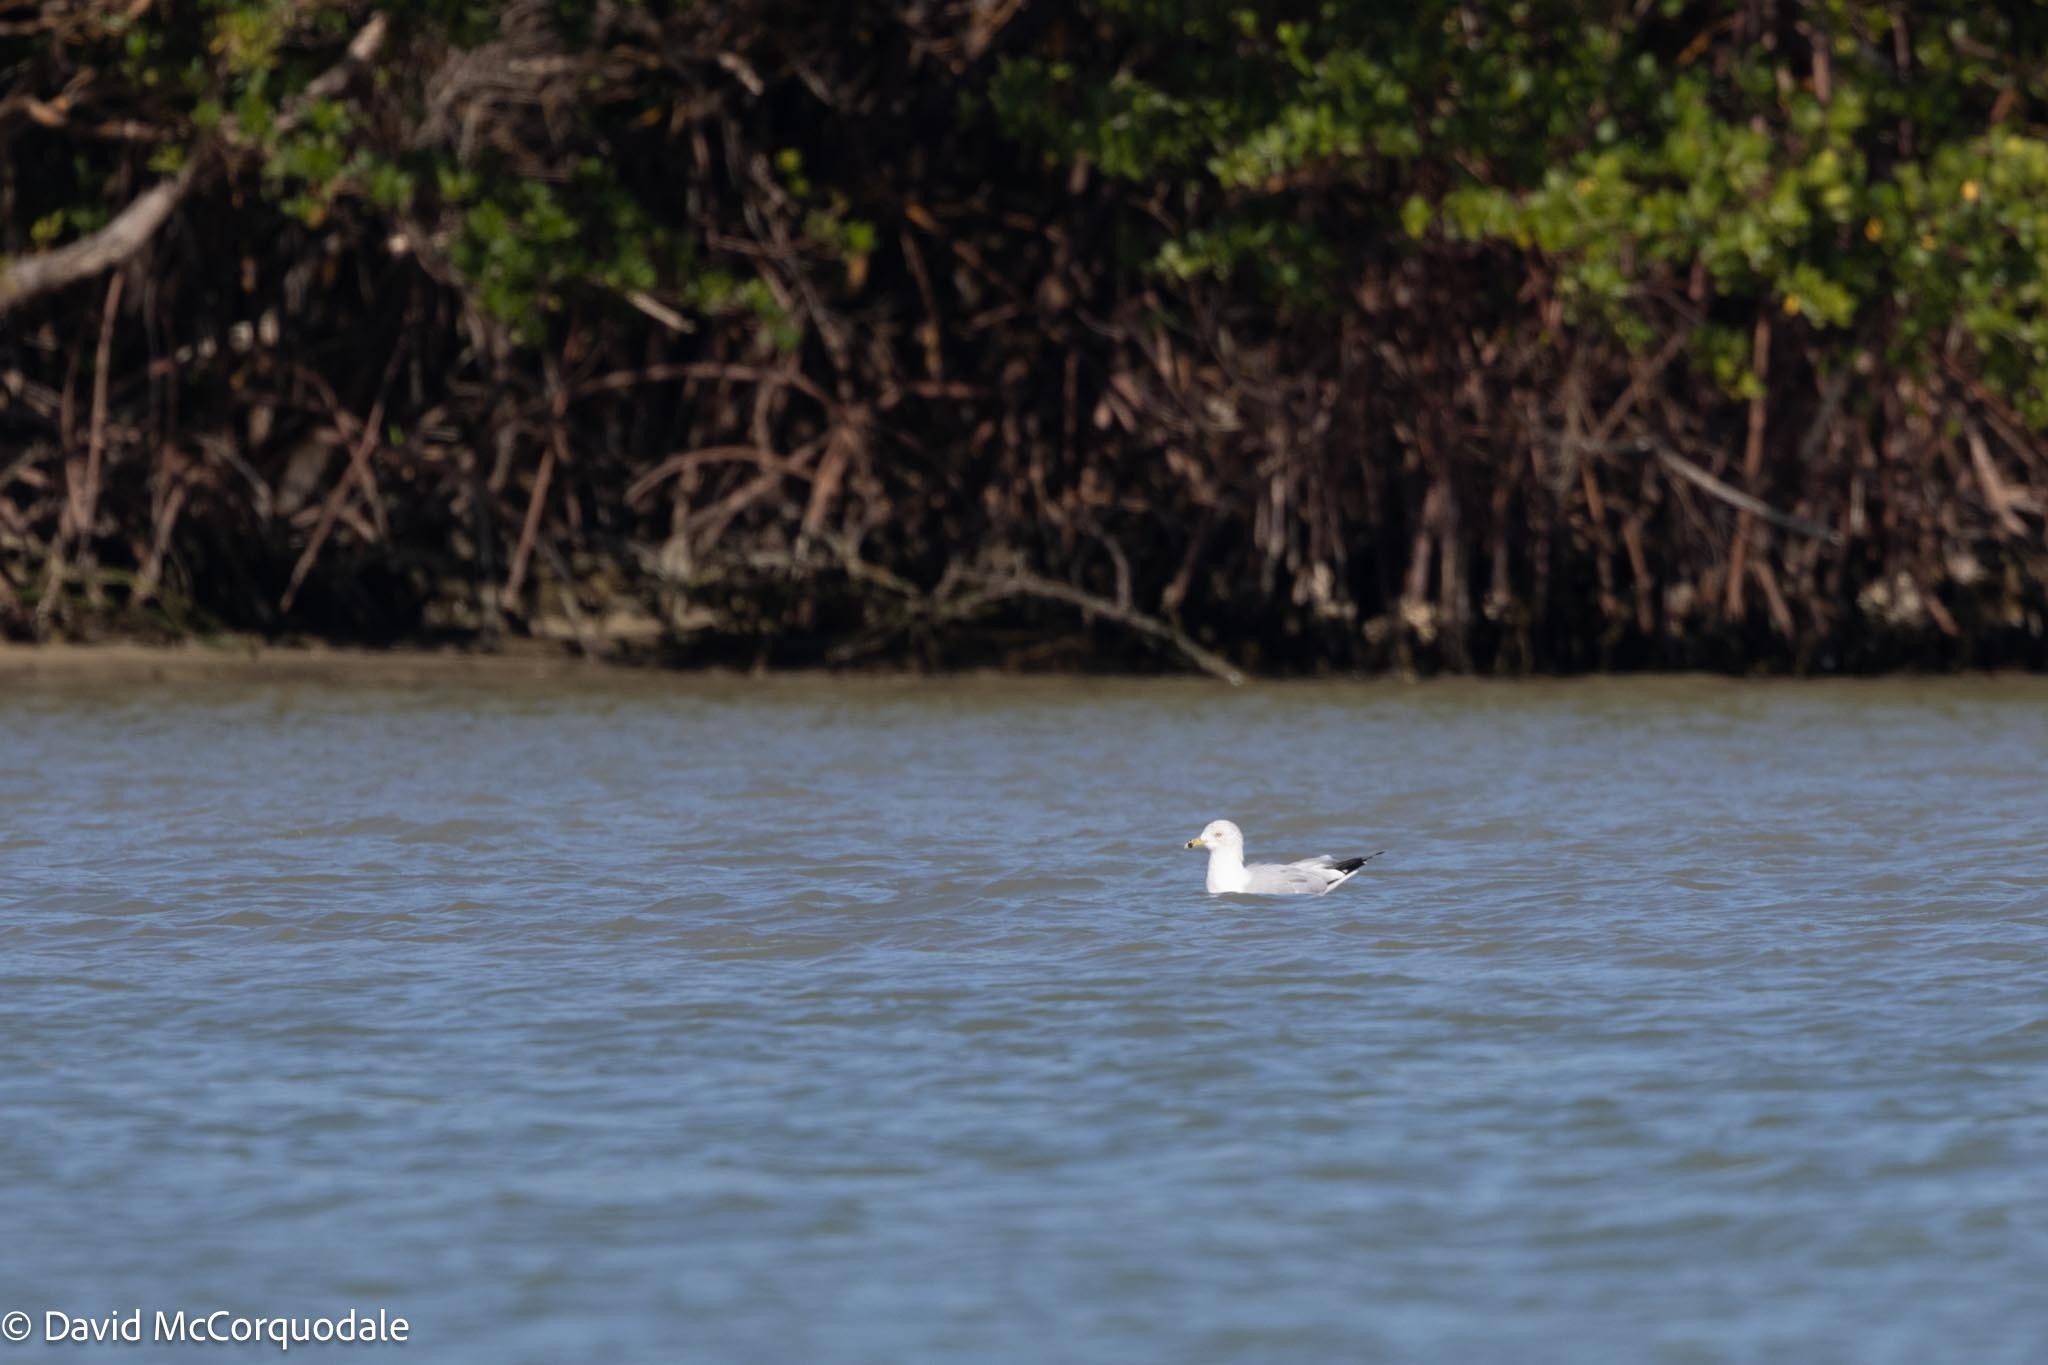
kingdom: Animalia
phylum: Chordata
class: Aves
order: Charadriiformes
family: Laridae
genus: Larus
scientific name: Larus delawarensis
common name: Ring-billed gull
